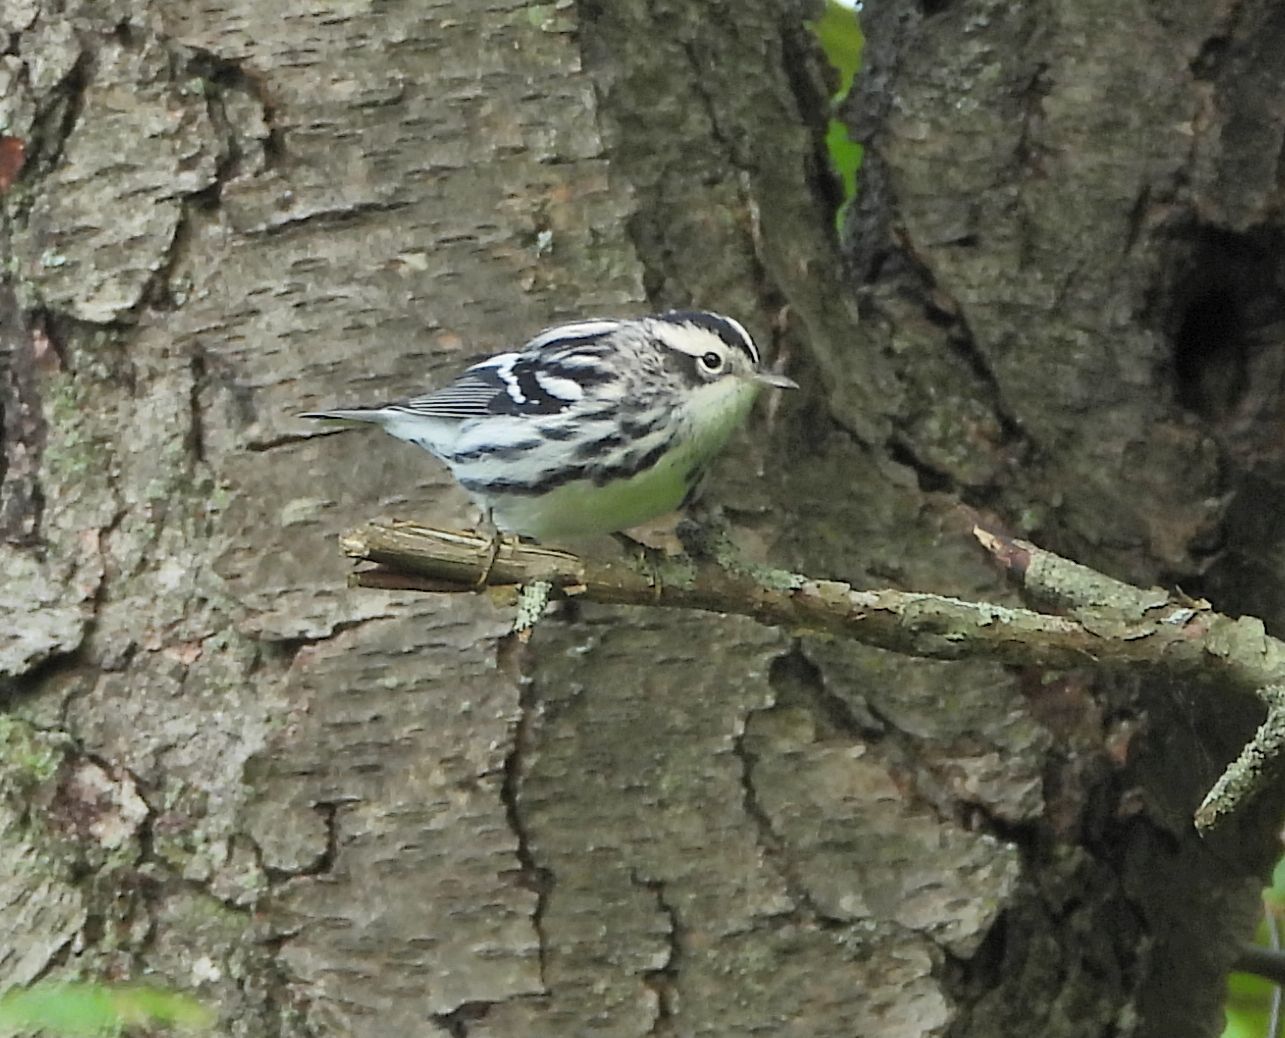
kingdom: Animalia
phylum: Chordata
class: Aves
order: Passeriformes
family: Parulidae
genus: Mniotilta
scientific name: Mniotilta varia
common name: Black-and-white warbler
